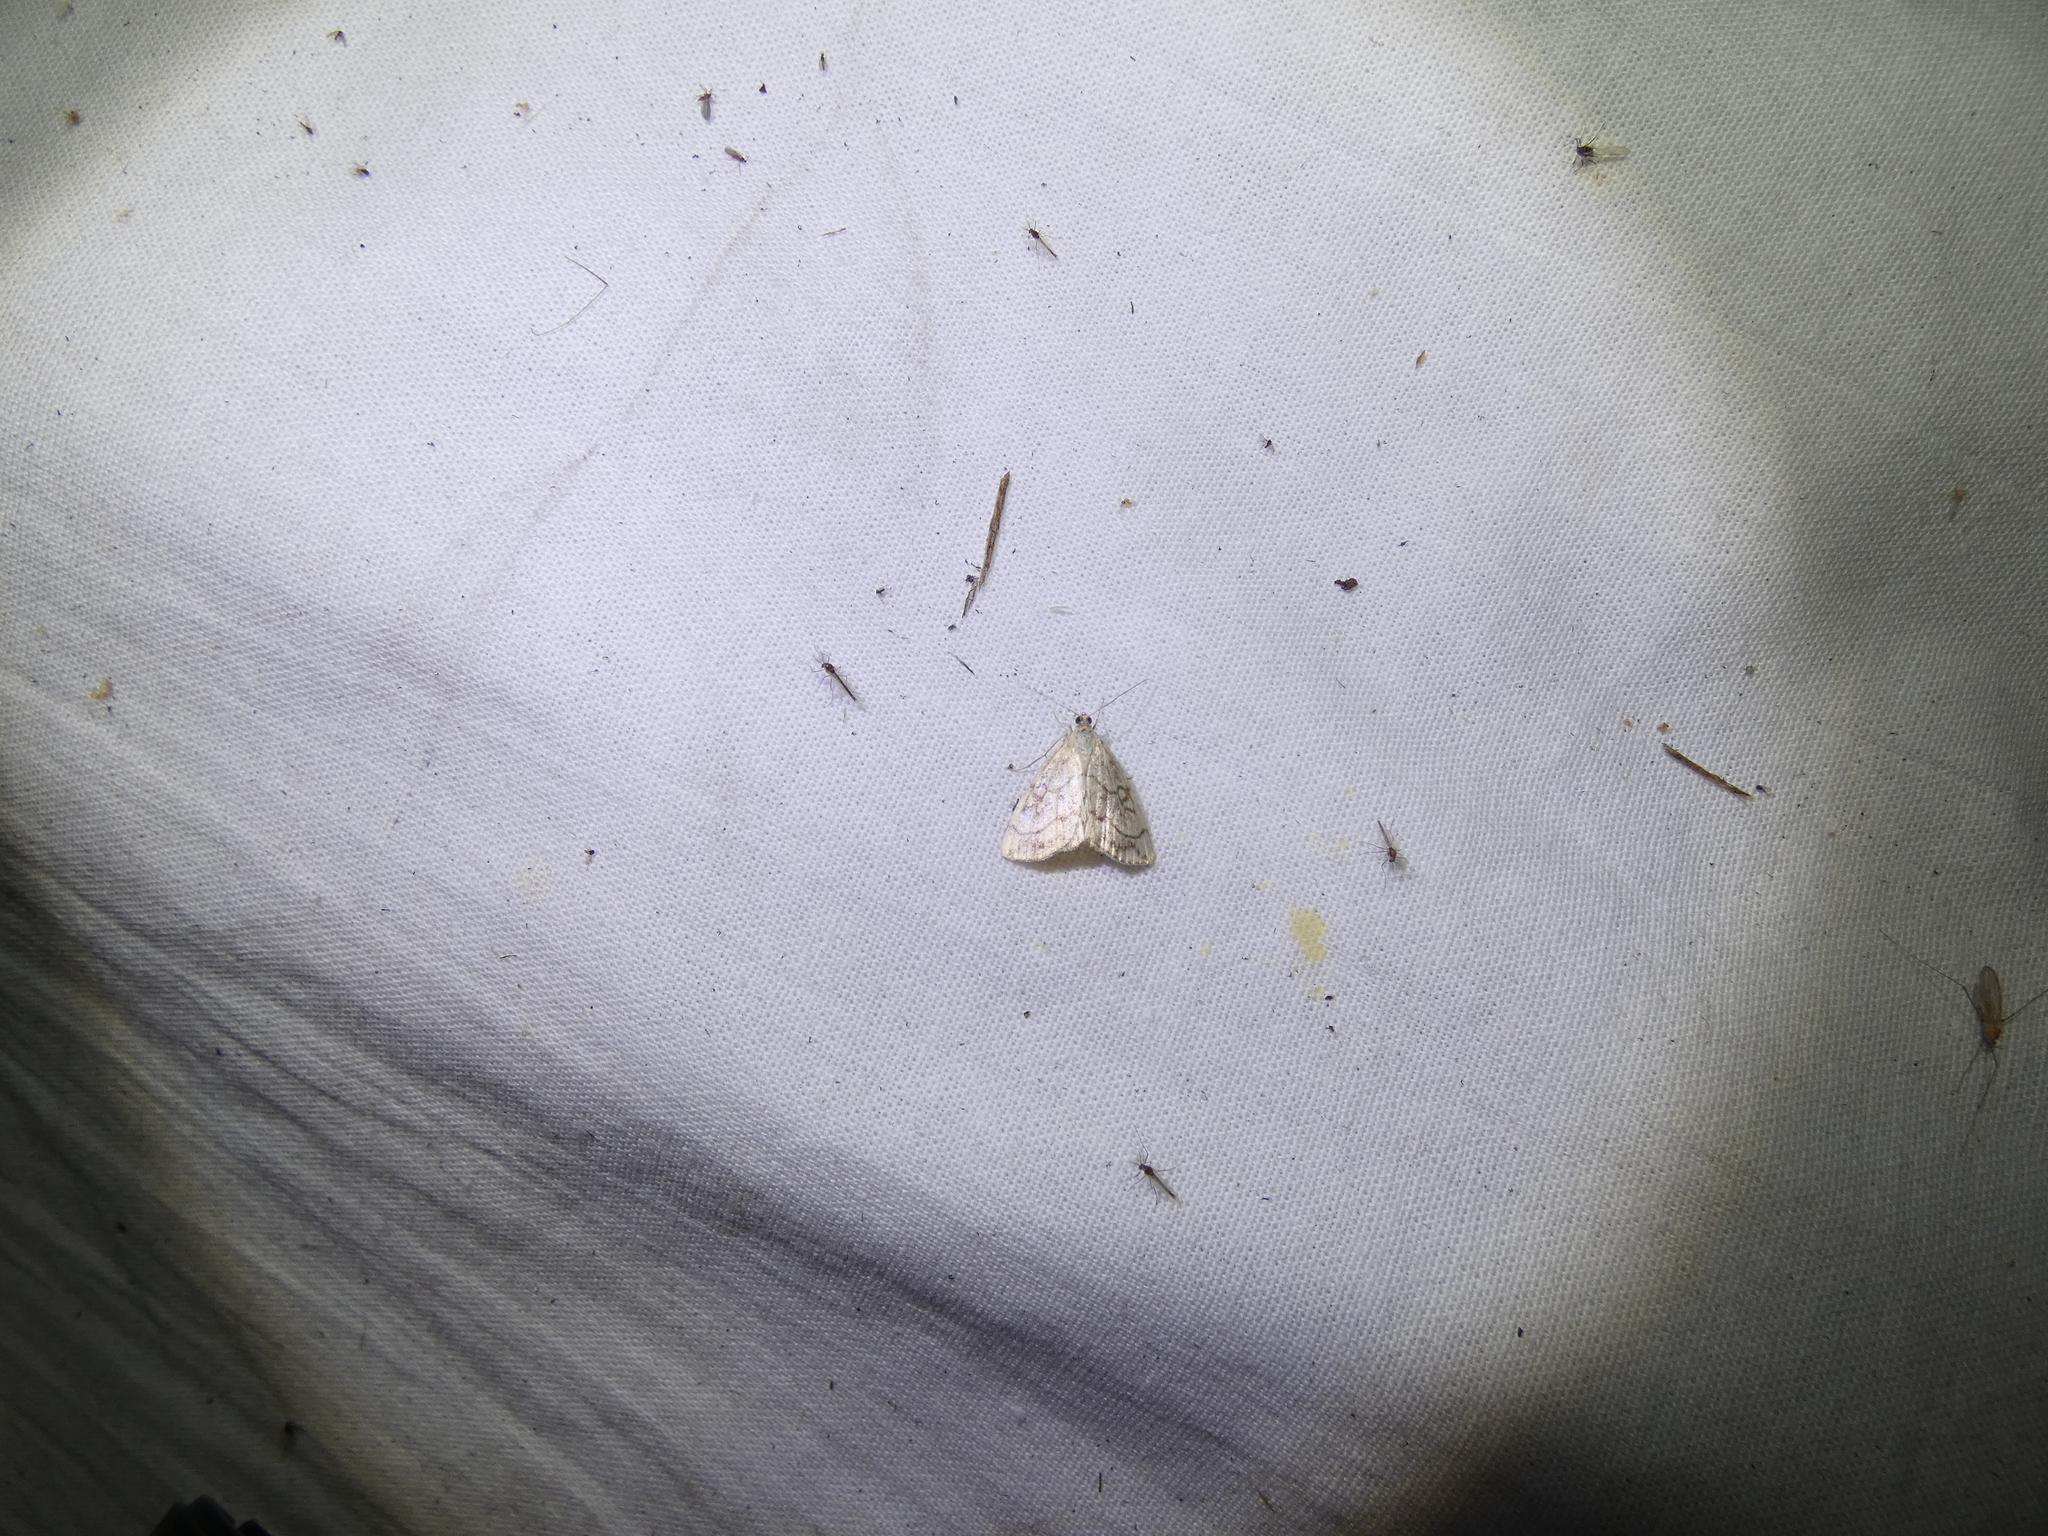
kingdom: Animalia
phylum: Arthropoda
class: Insecta
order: Lepidoptera
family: Crambidae
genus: Evergestis
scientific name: Evergestis pallidata
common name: Chequered pearl
